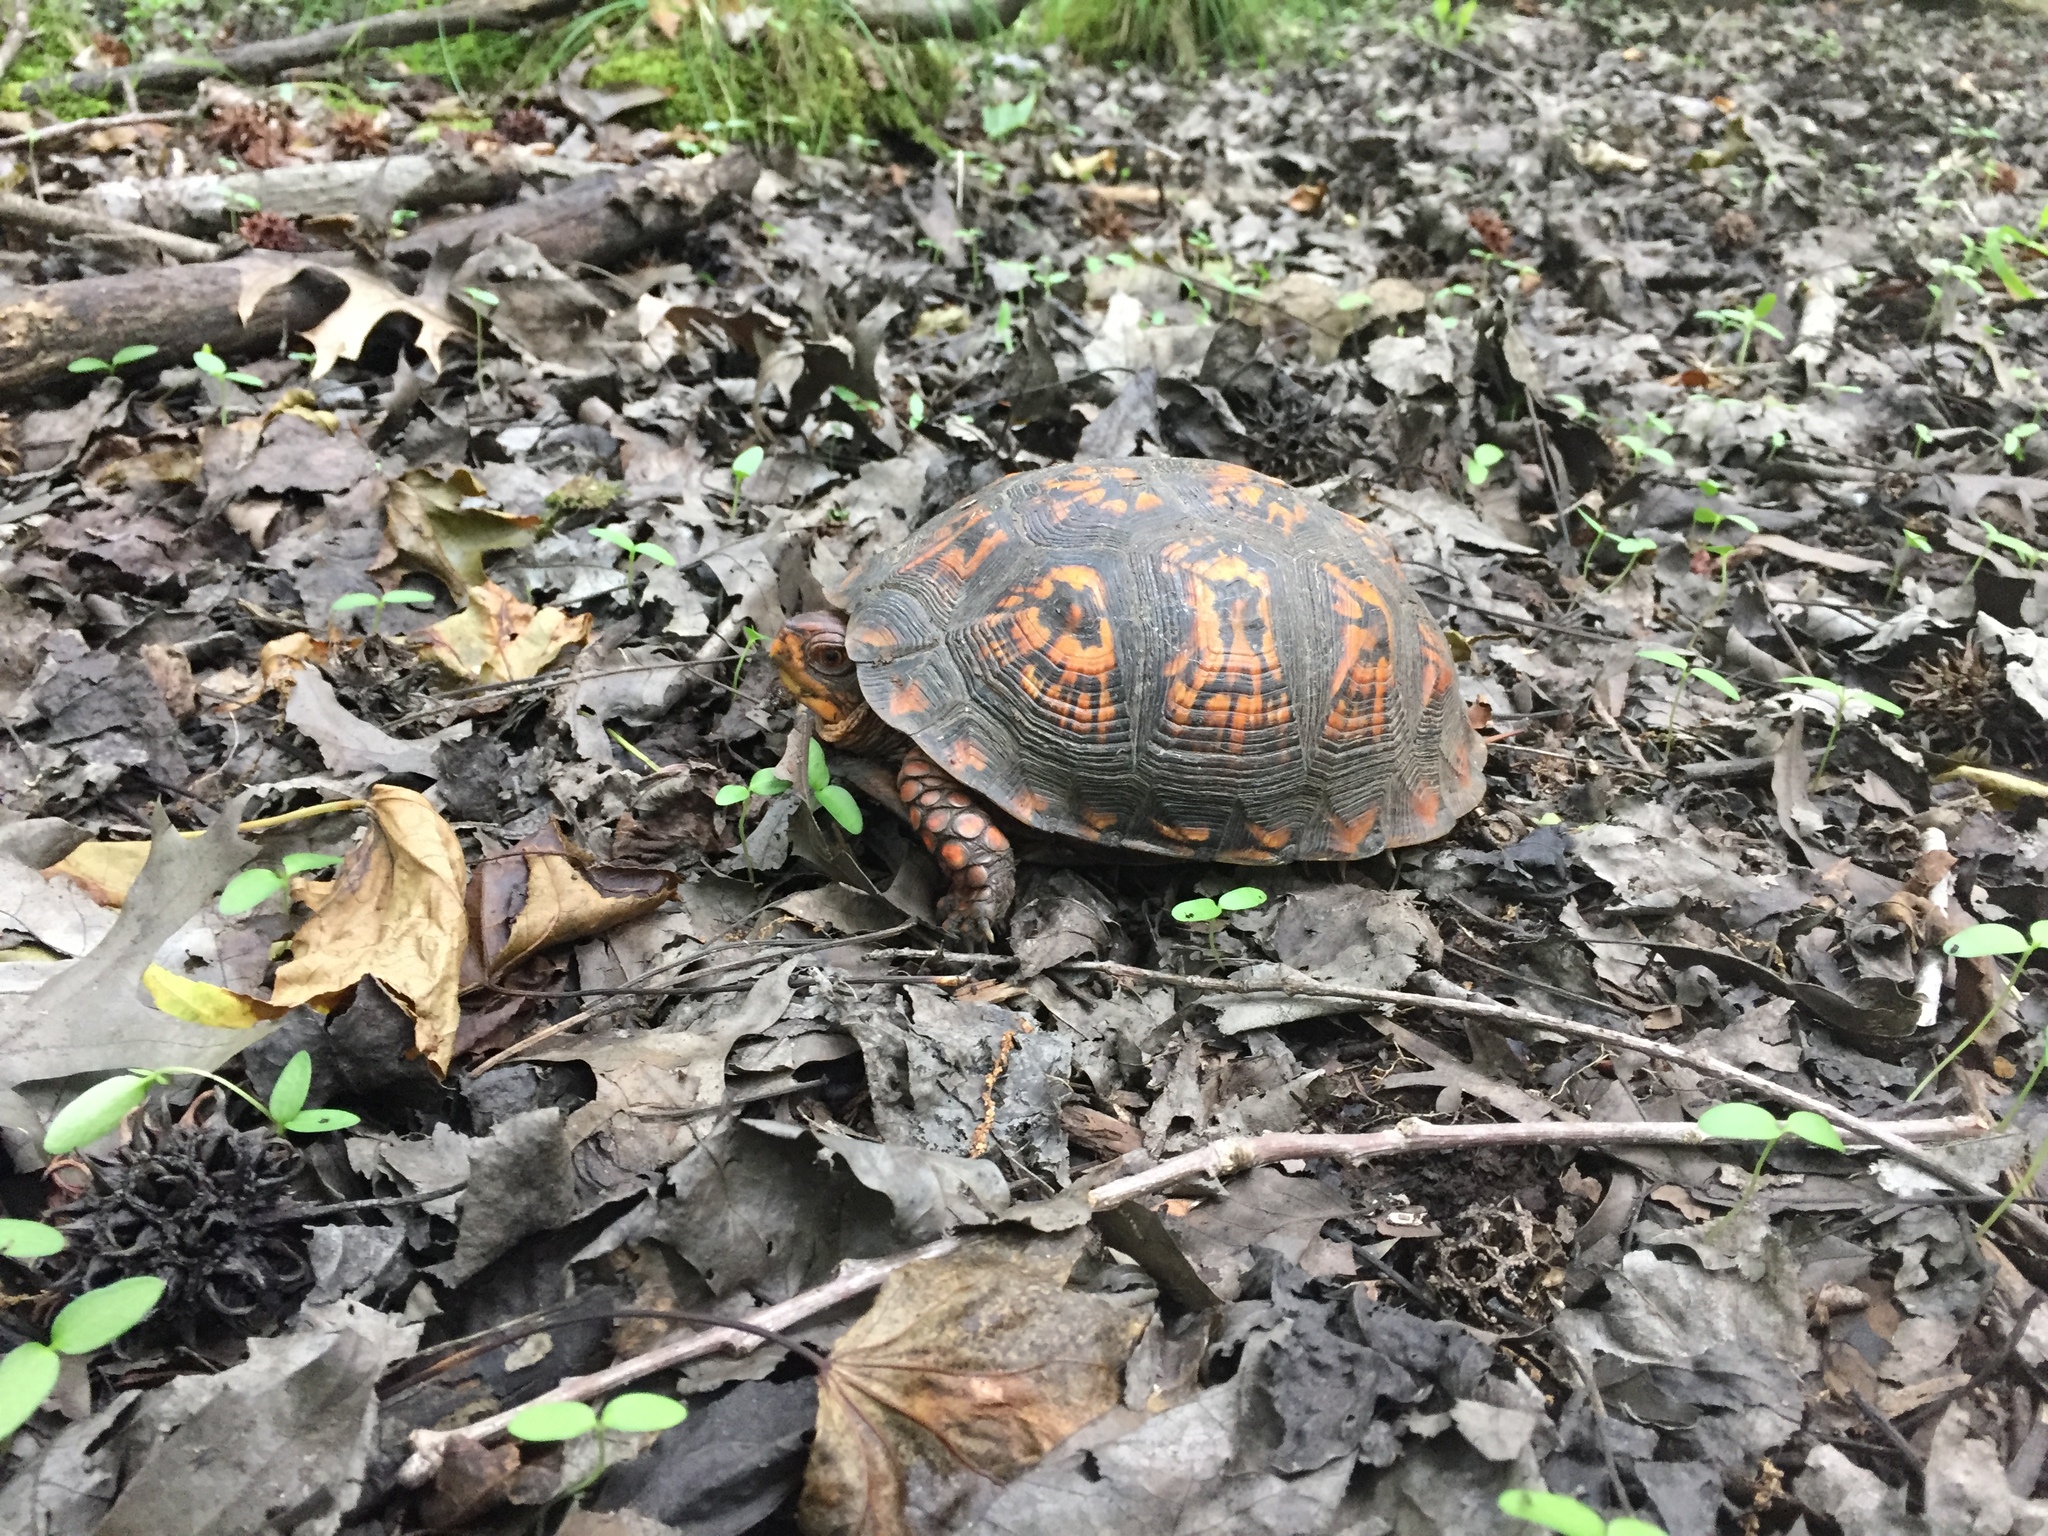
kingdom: Animalia
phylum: Chordata
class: Testudines
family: Emydidae
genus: Terrapene
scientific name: Terrapene carolina
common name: Common box turtle
